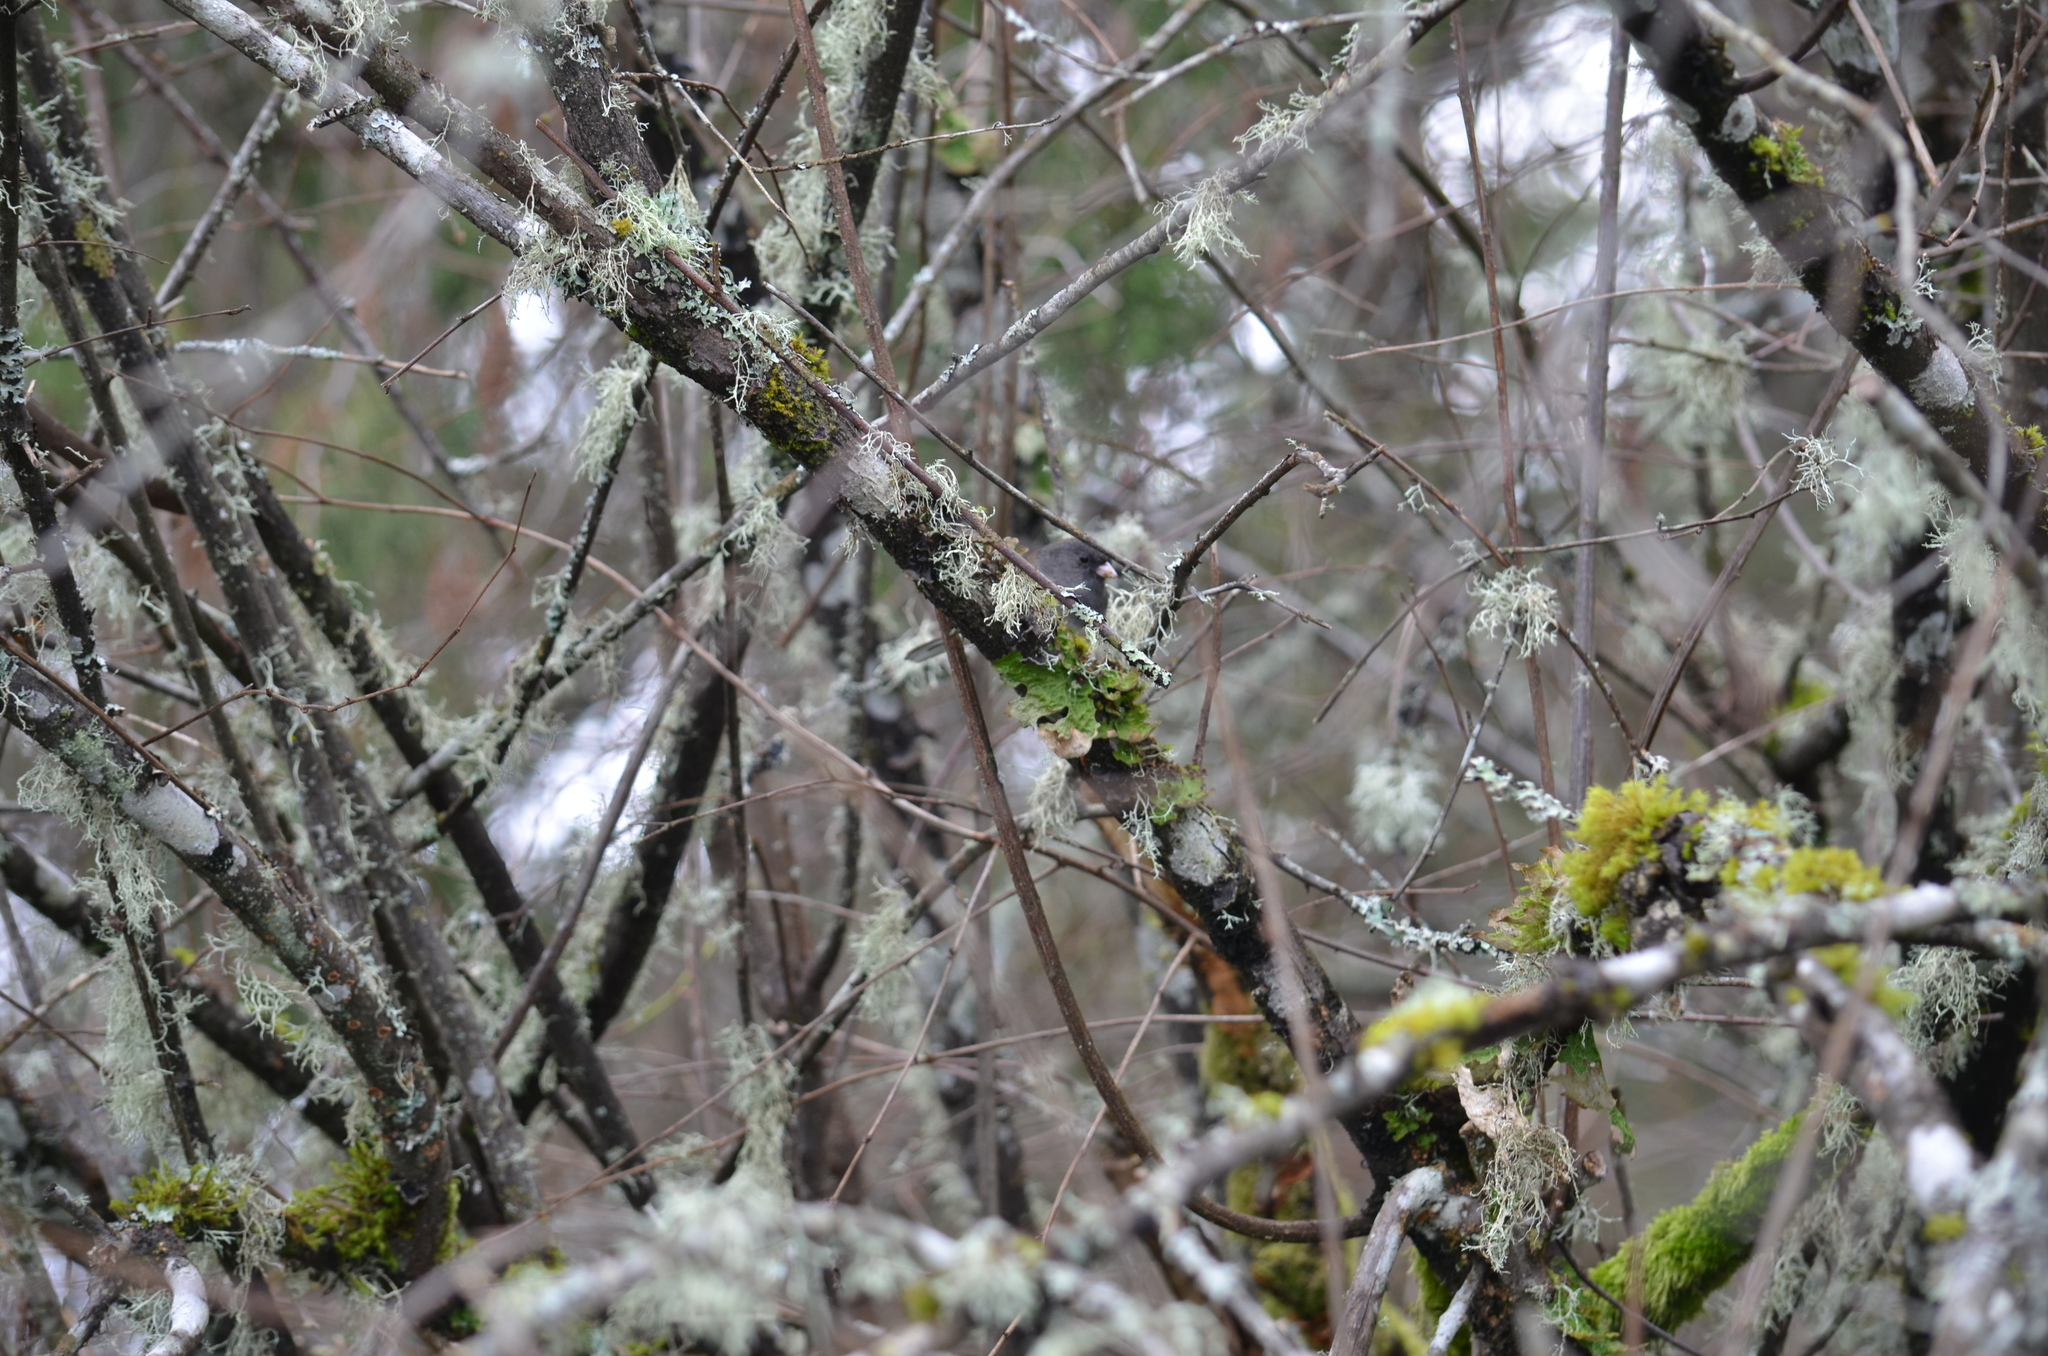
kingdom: Animalia
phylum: Chordata
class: Aves
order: Passeriformes
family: Passerellidae
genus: Junco
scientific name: Junco hyemalis
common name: Dark-eyed junco
